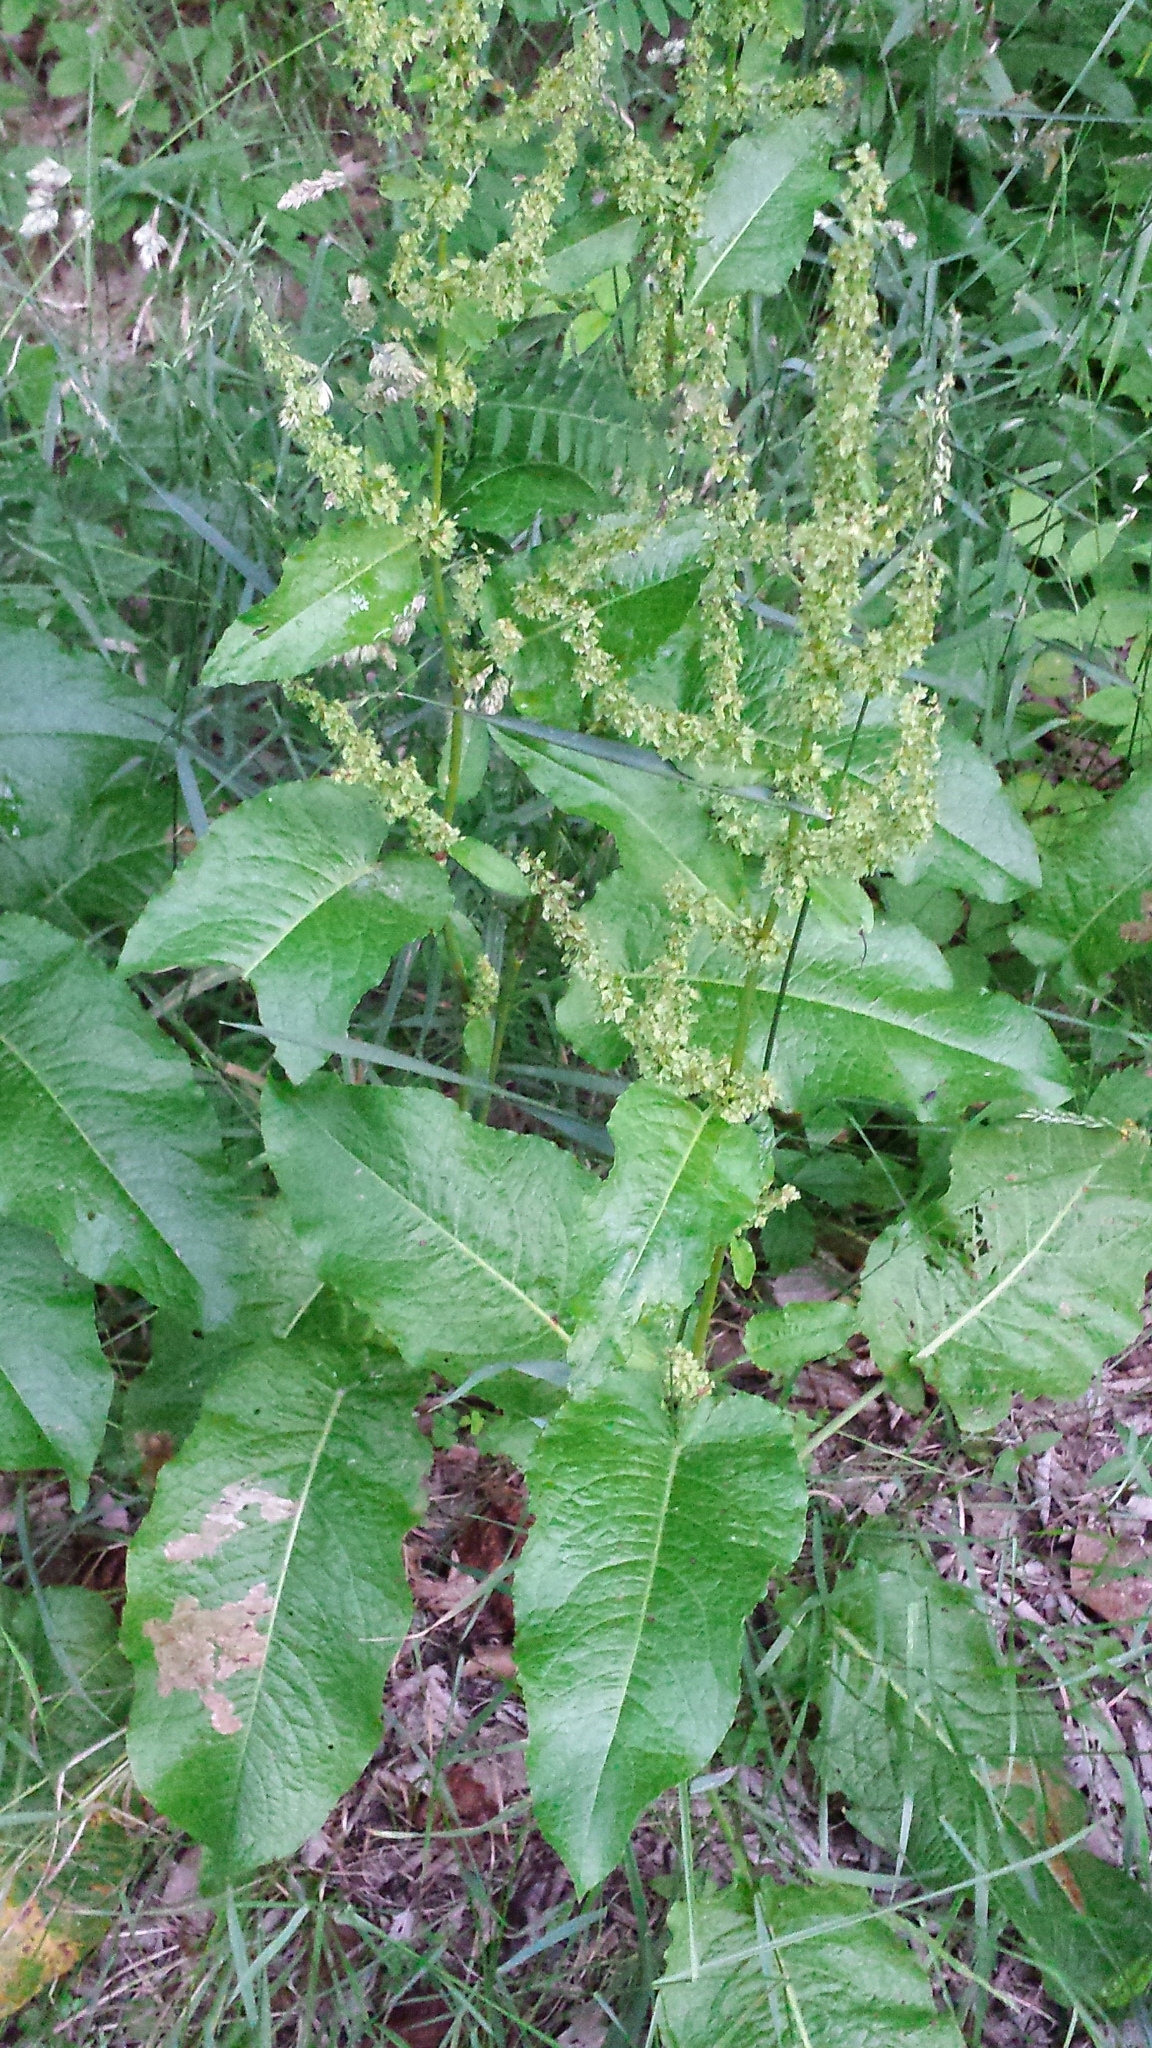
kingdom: Plantae
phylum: Tracheophyta
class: Magnoliopsida
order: Caryophyllales
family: Polygonaceae
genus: Rumex
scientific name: Rumex obtusifolius
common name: Bitter dock
